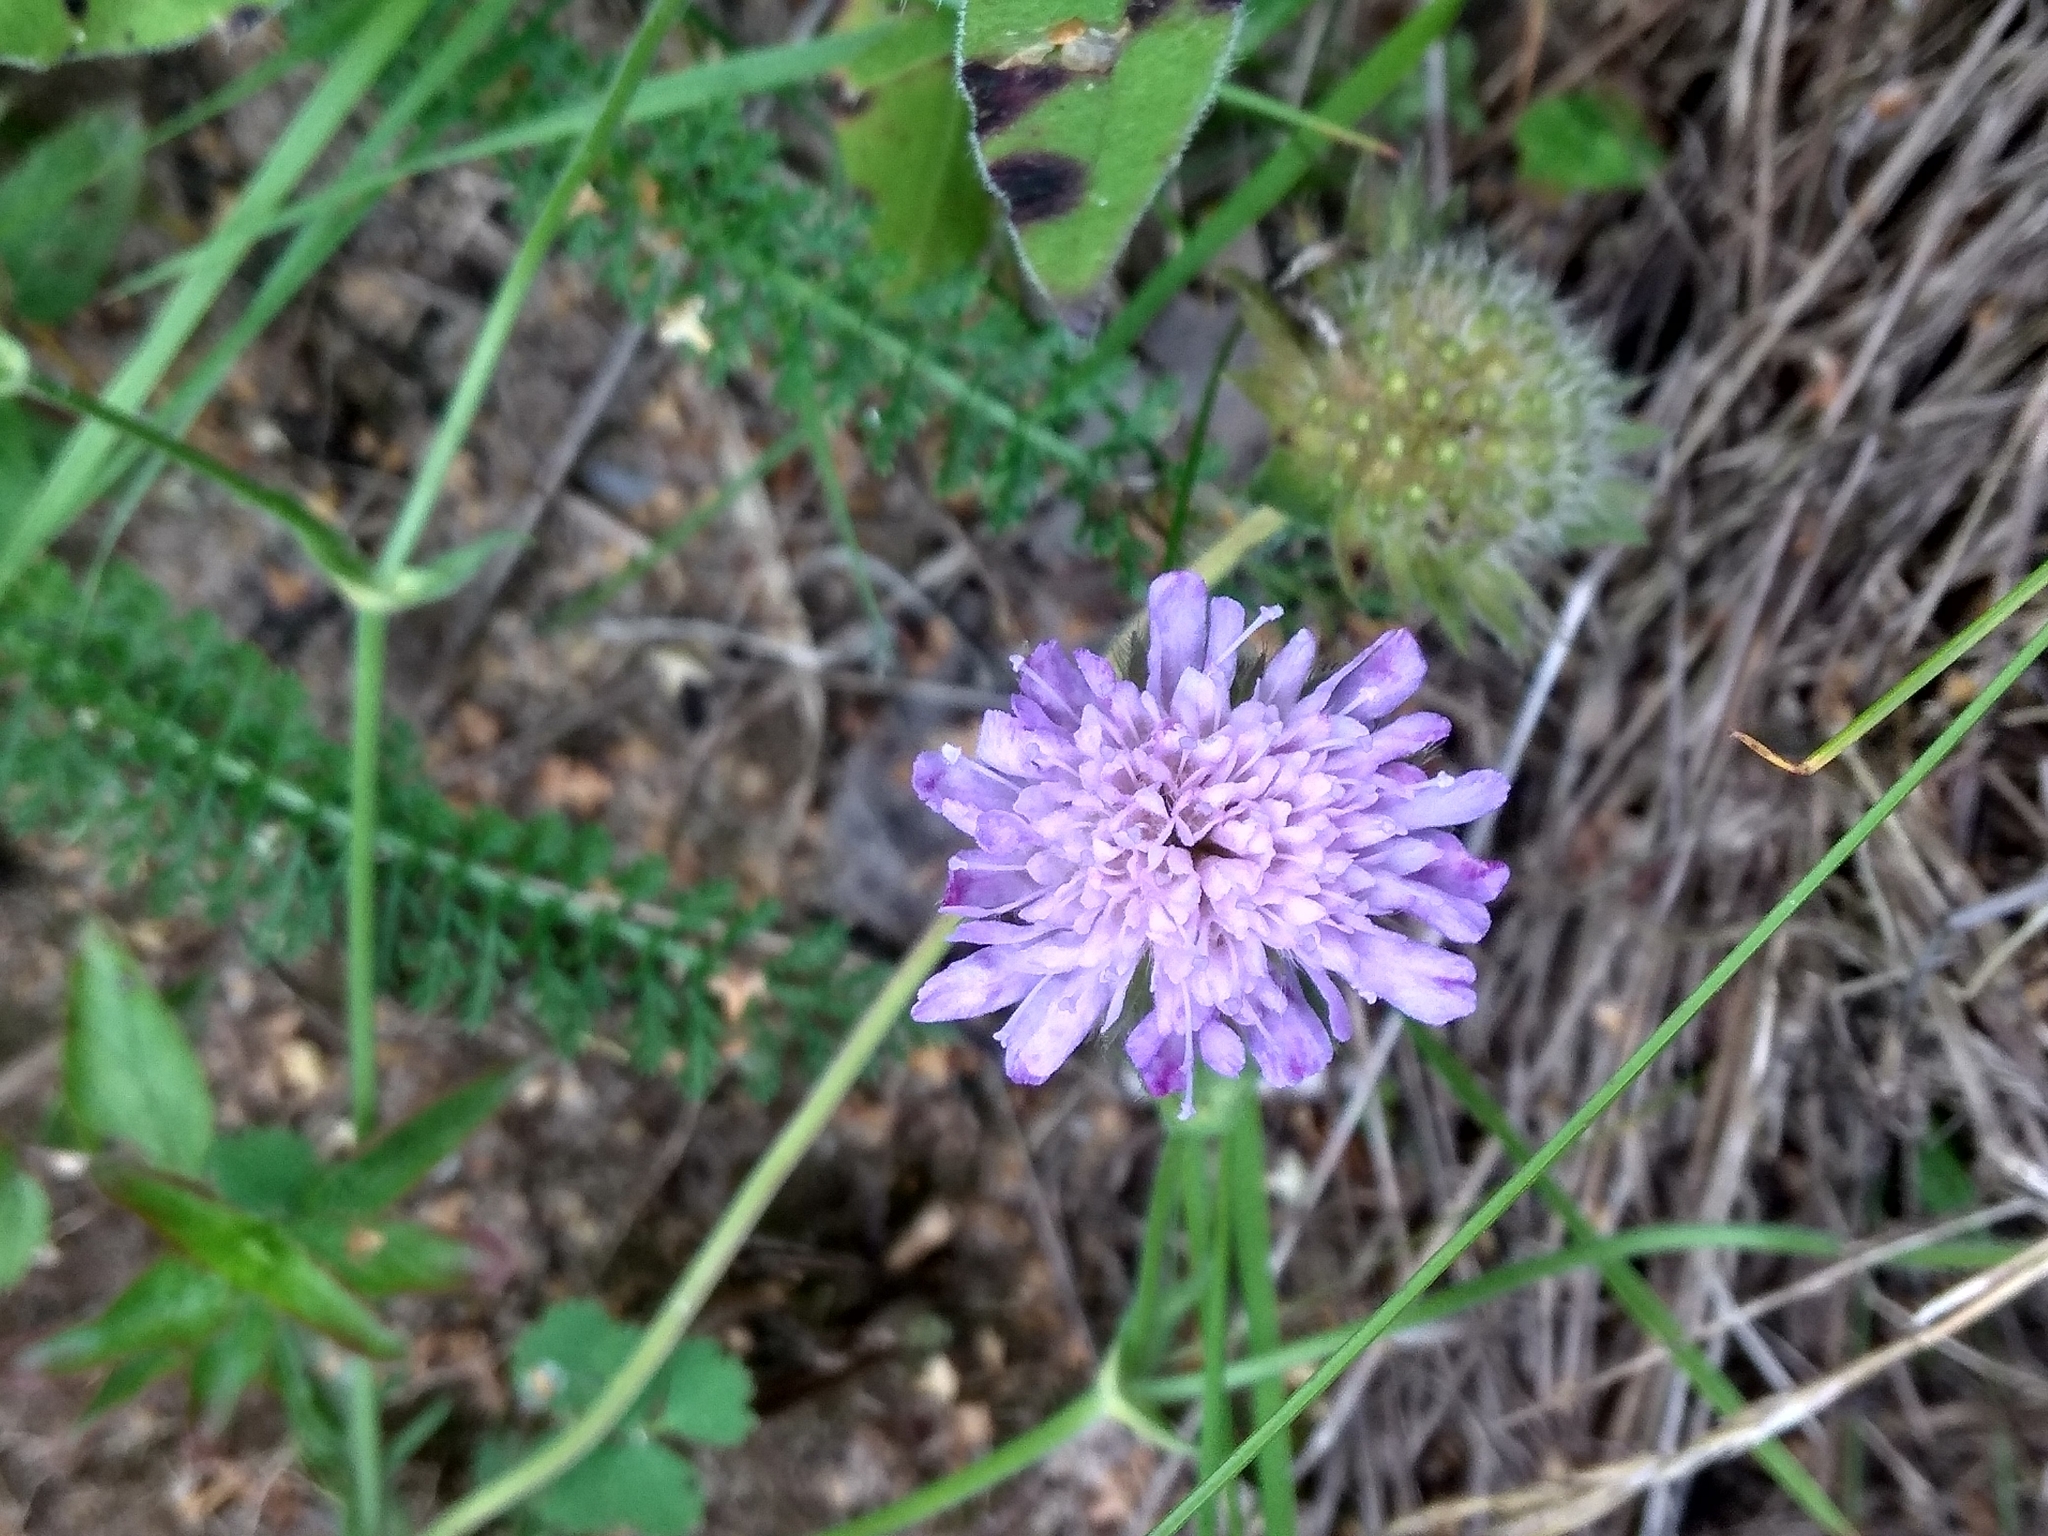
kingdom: Plantae
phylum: Tracheophyta
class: Magnoliopsida
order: Dipsacales
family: Caprifoliaceae
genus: Knautia
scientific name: Knautia arvensis
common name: Field scabiosa
